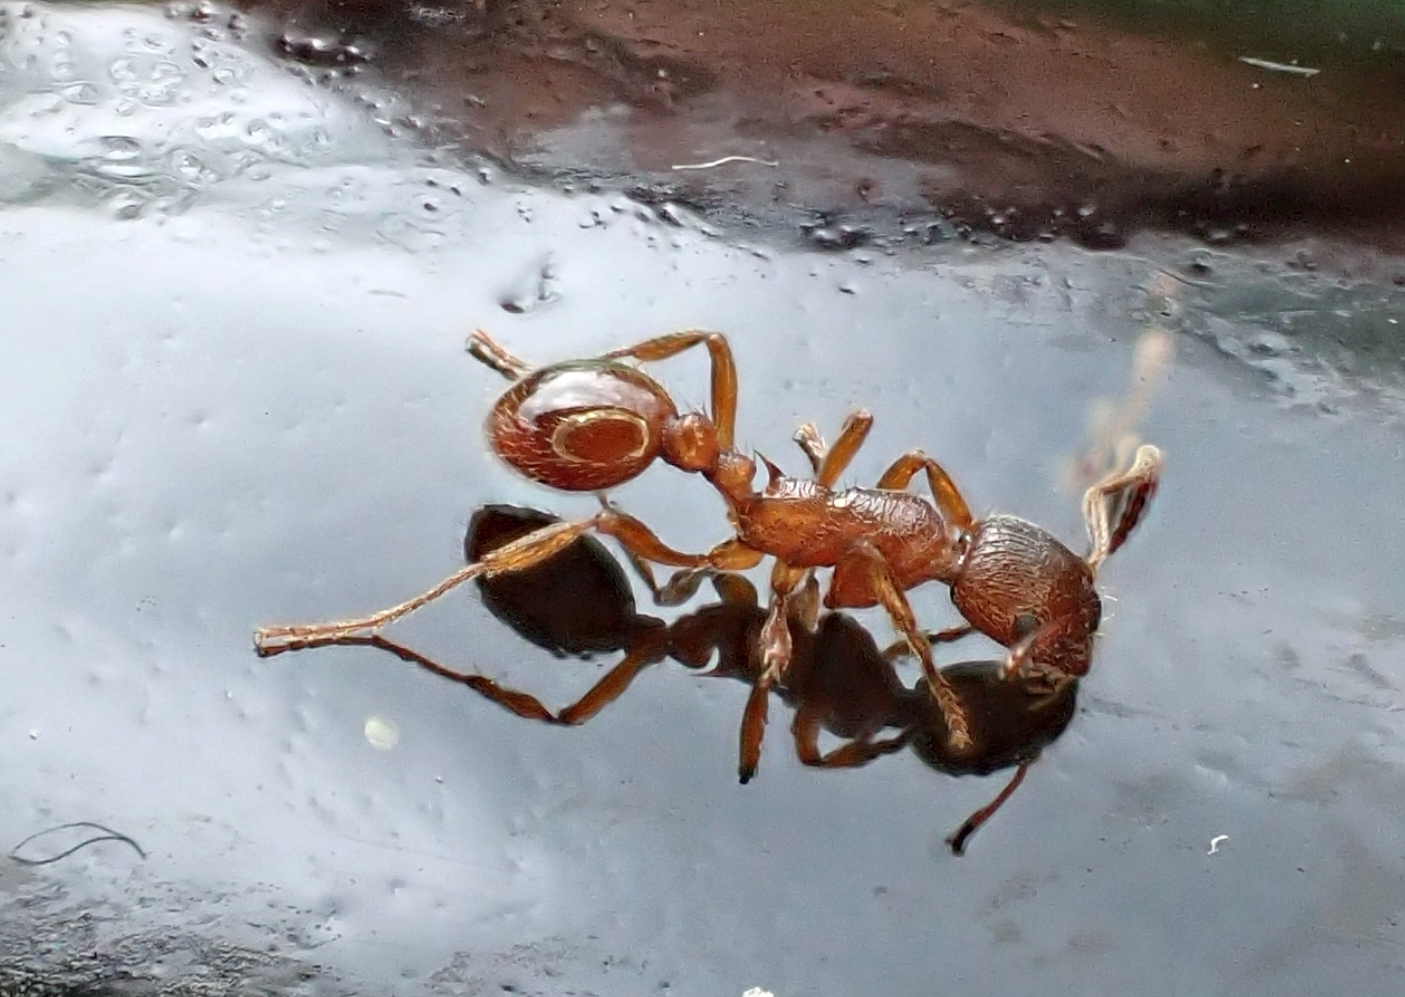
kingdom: Animalia
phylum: Arthropoda
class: Insecta
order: Hymenoptera
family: Formicidae
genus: Myrmica
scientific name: Myrmica rubra
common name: European fire ant
